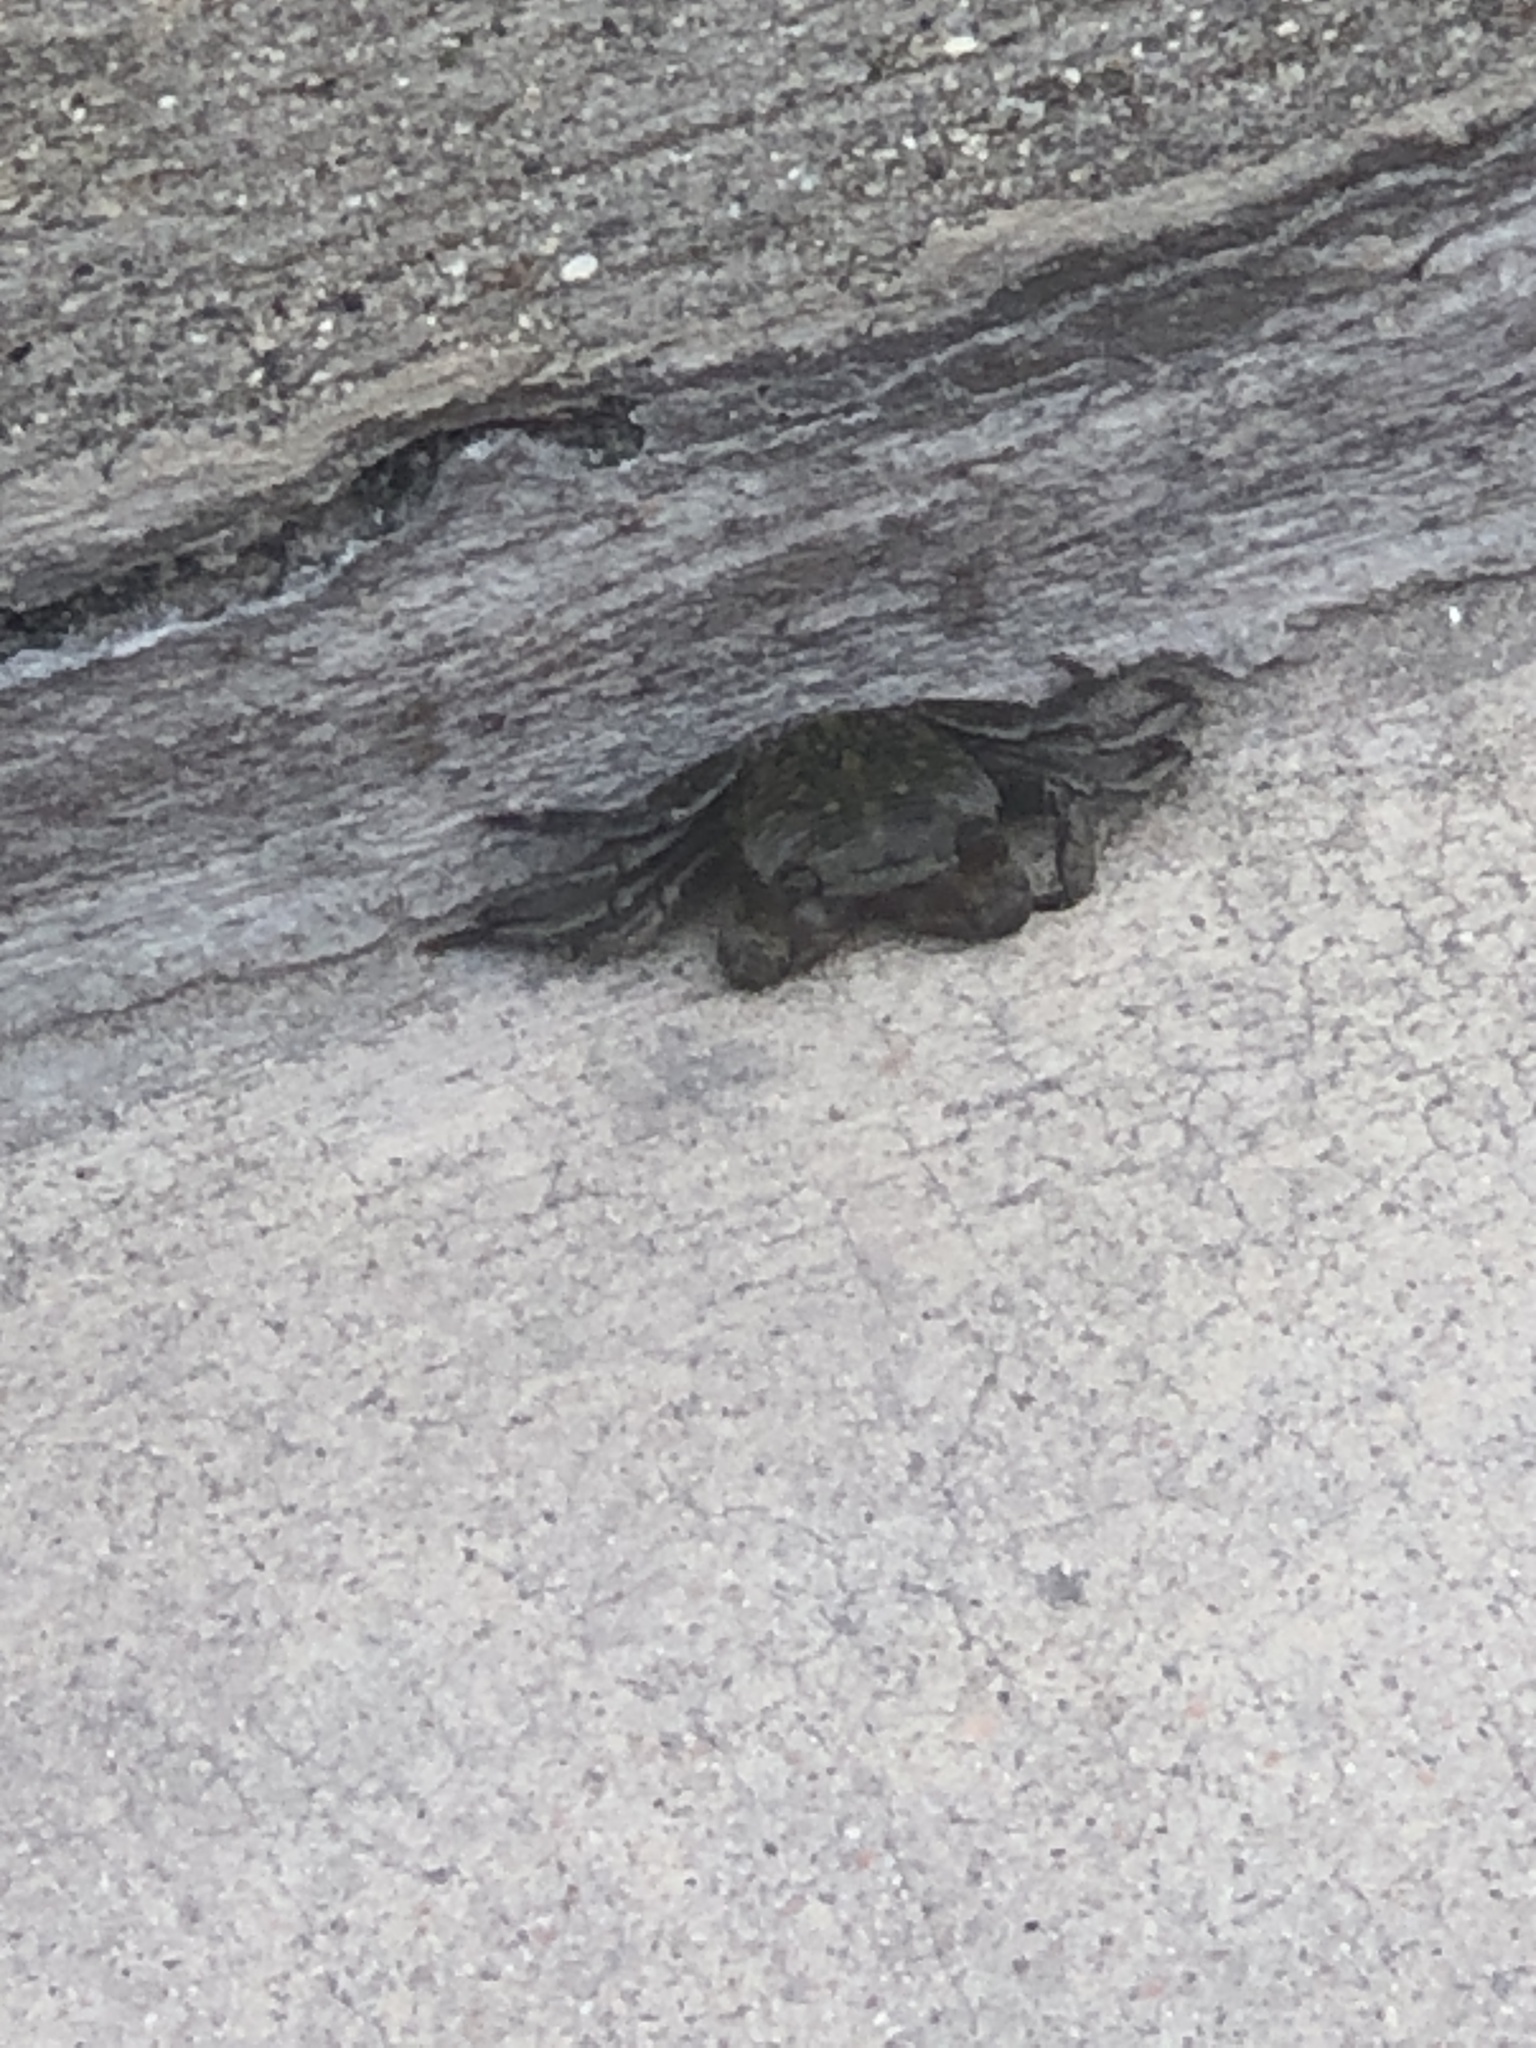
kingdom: Animalia
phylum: Arthropoda
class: Malacostraca
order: Decapoda
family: Grapsidae
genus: Pachygrapsus
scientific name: Pachygrapsus crassipes
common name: Striped shore crab
